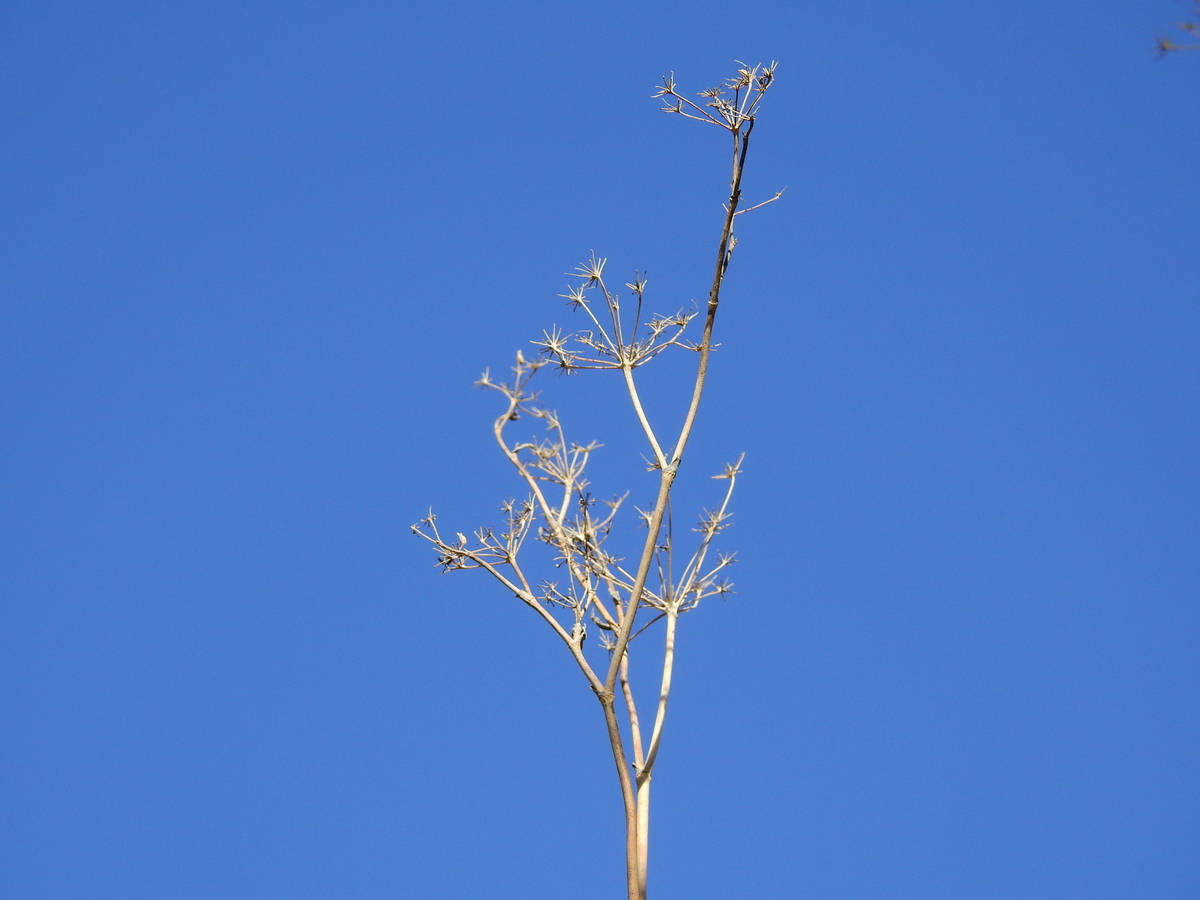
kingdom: Plantae
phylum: Tracheophyta
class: Magnoliopsida
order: Apiales
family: Apiaceae
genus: Foeniculum
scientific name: Foeniculum vulgare
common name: Fennel
